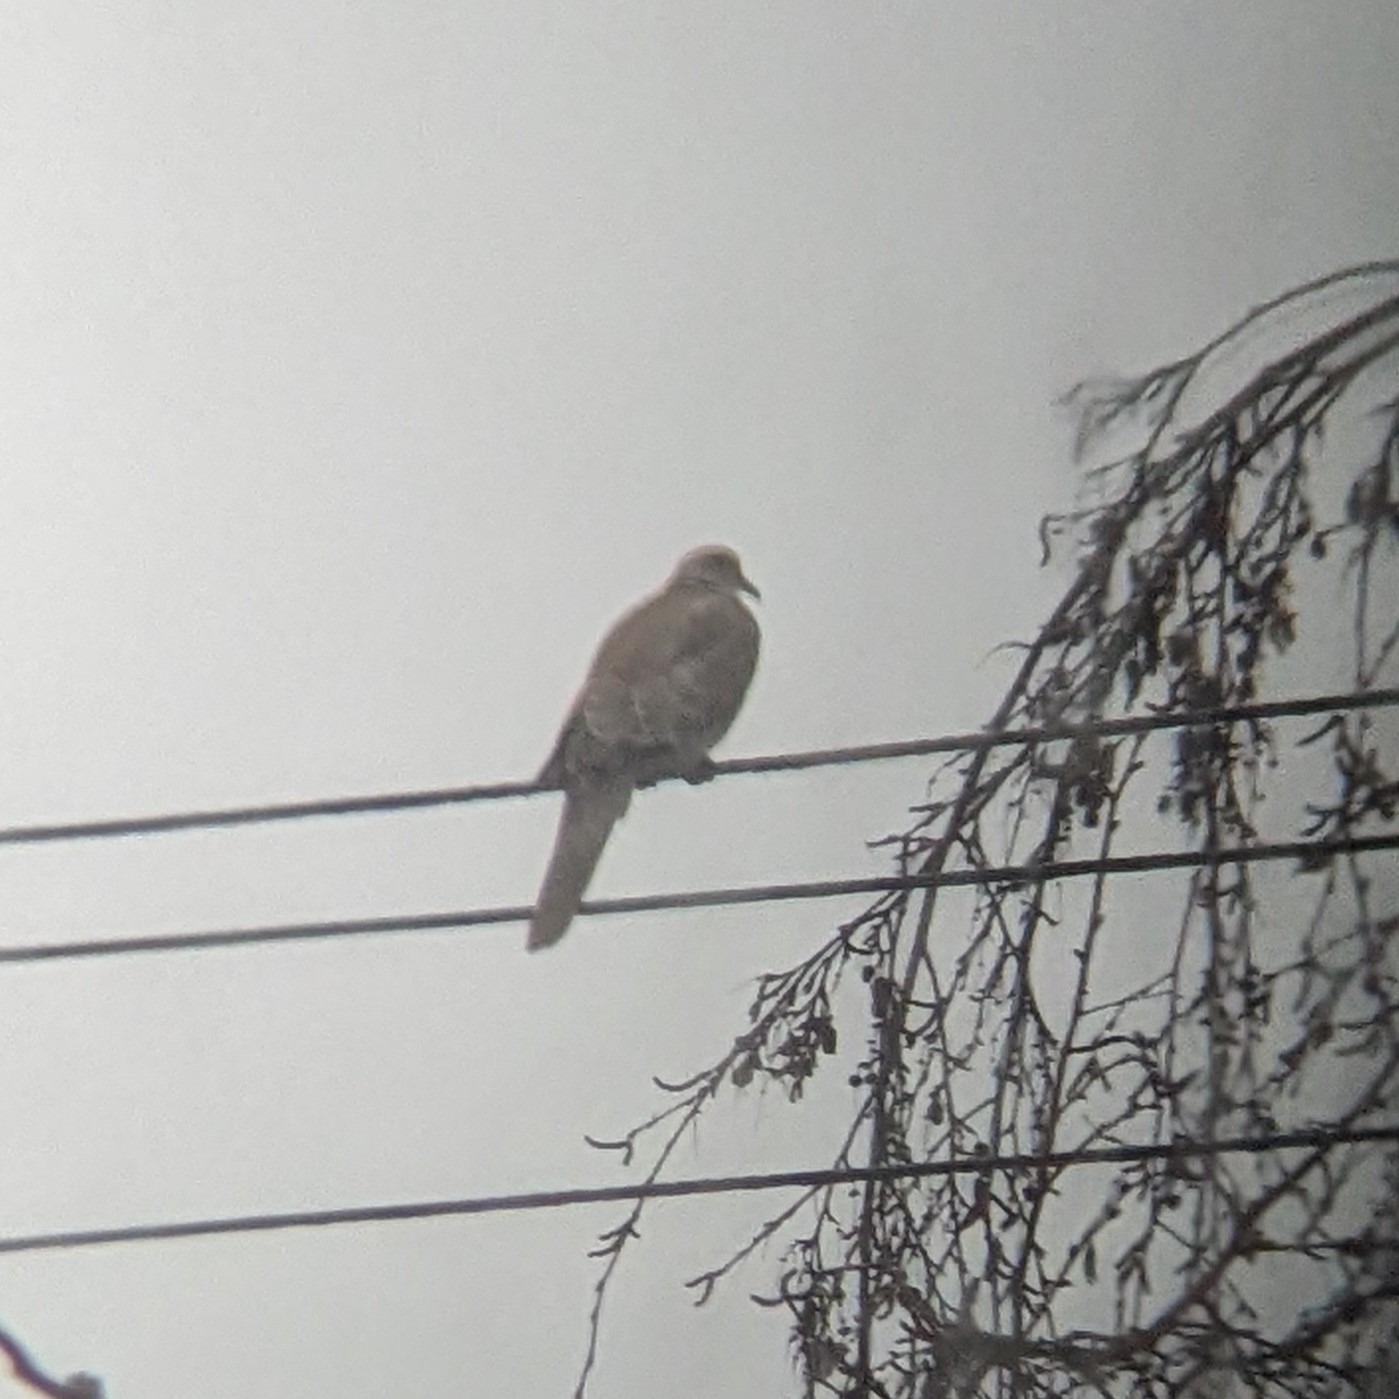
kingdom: Animalia
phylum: Chordata
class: Aves
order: Columbiformes
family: Columbidae
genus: Streptopelia
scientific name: Streptopelia decaocto
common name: Eurasian collared dove
